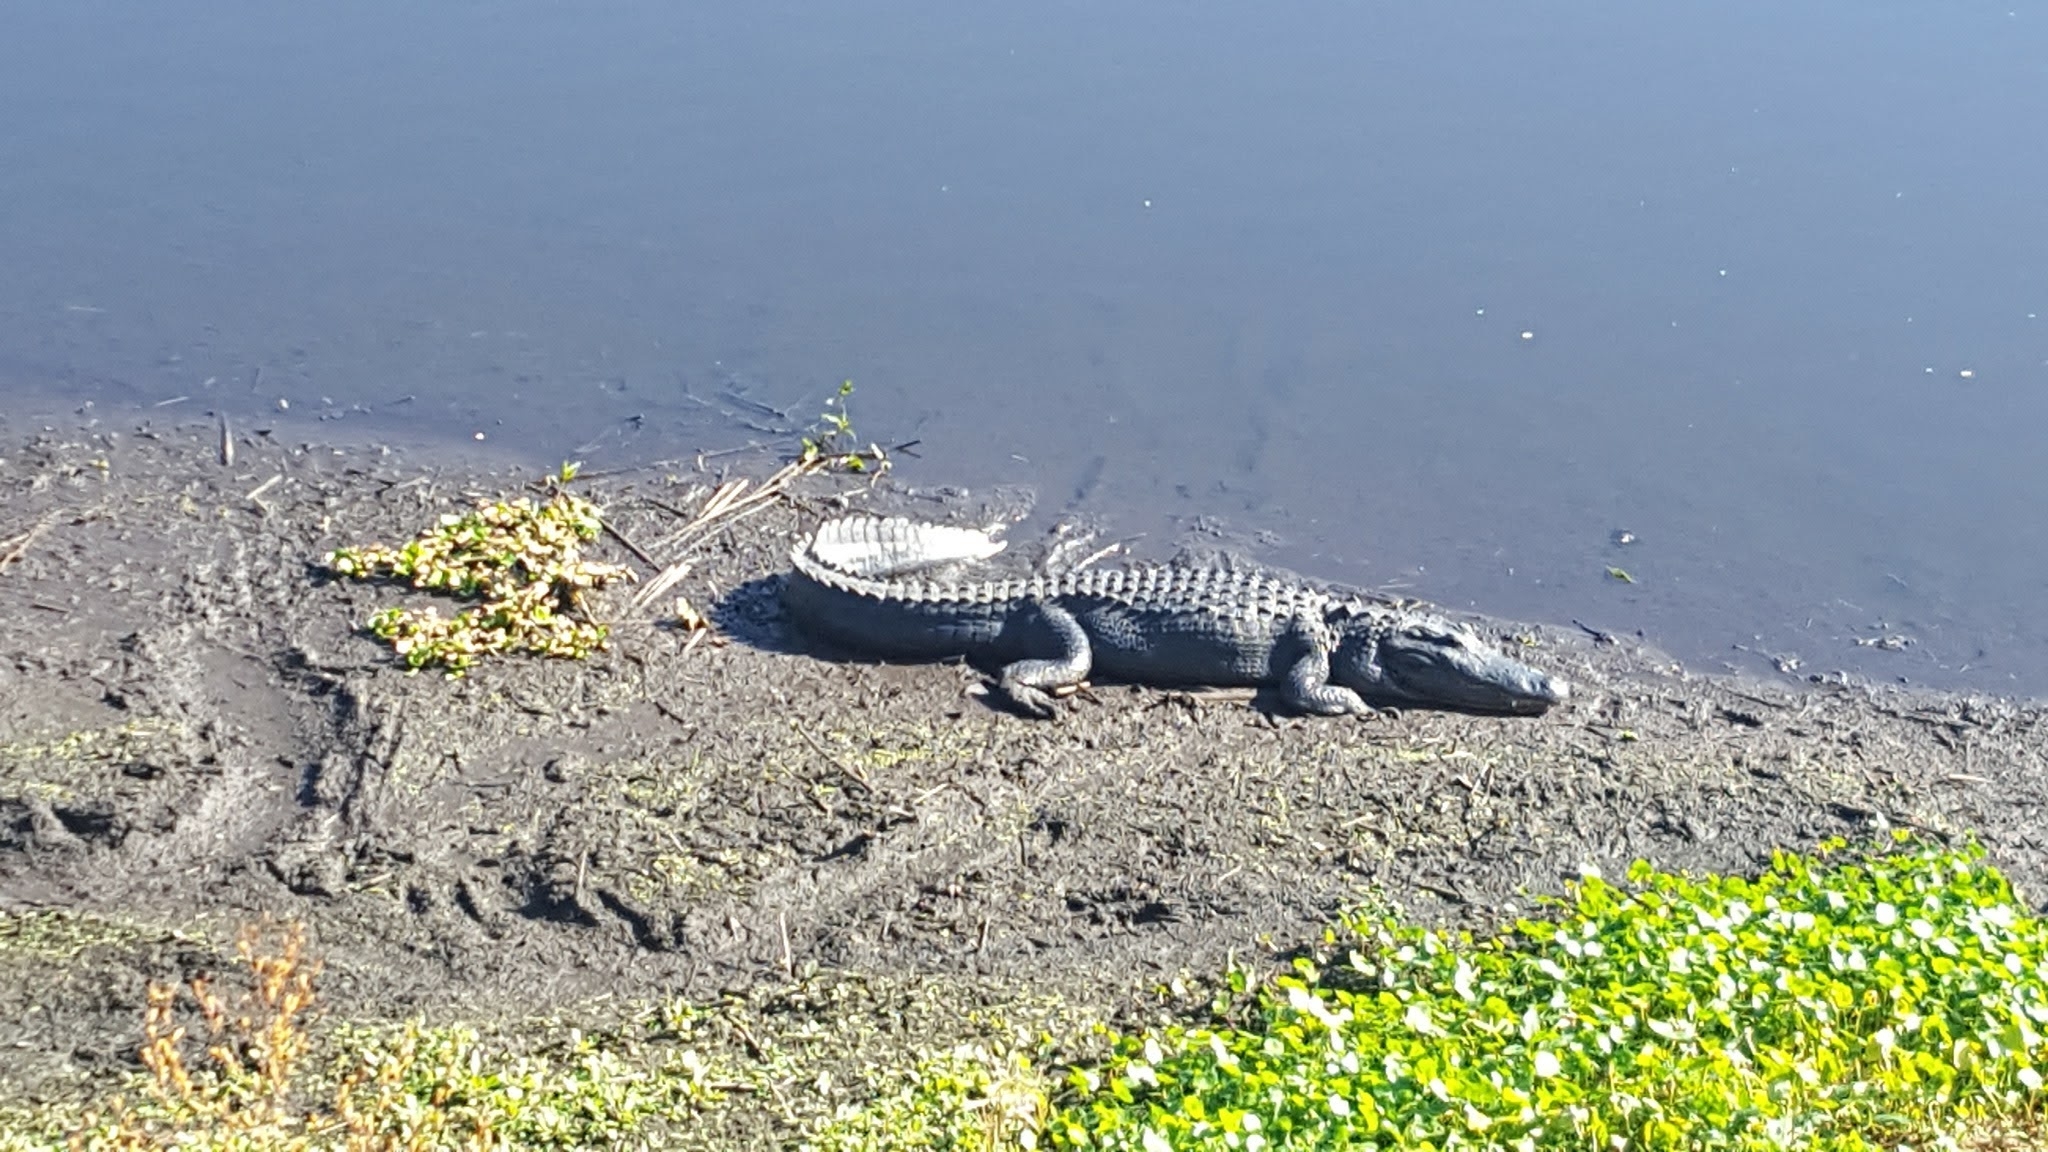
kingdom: Animalia
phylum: Chordata
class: Crocodylia
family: Alligatoridae
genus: Alligator
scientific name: Alligator mississippiensis
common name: American alligator
